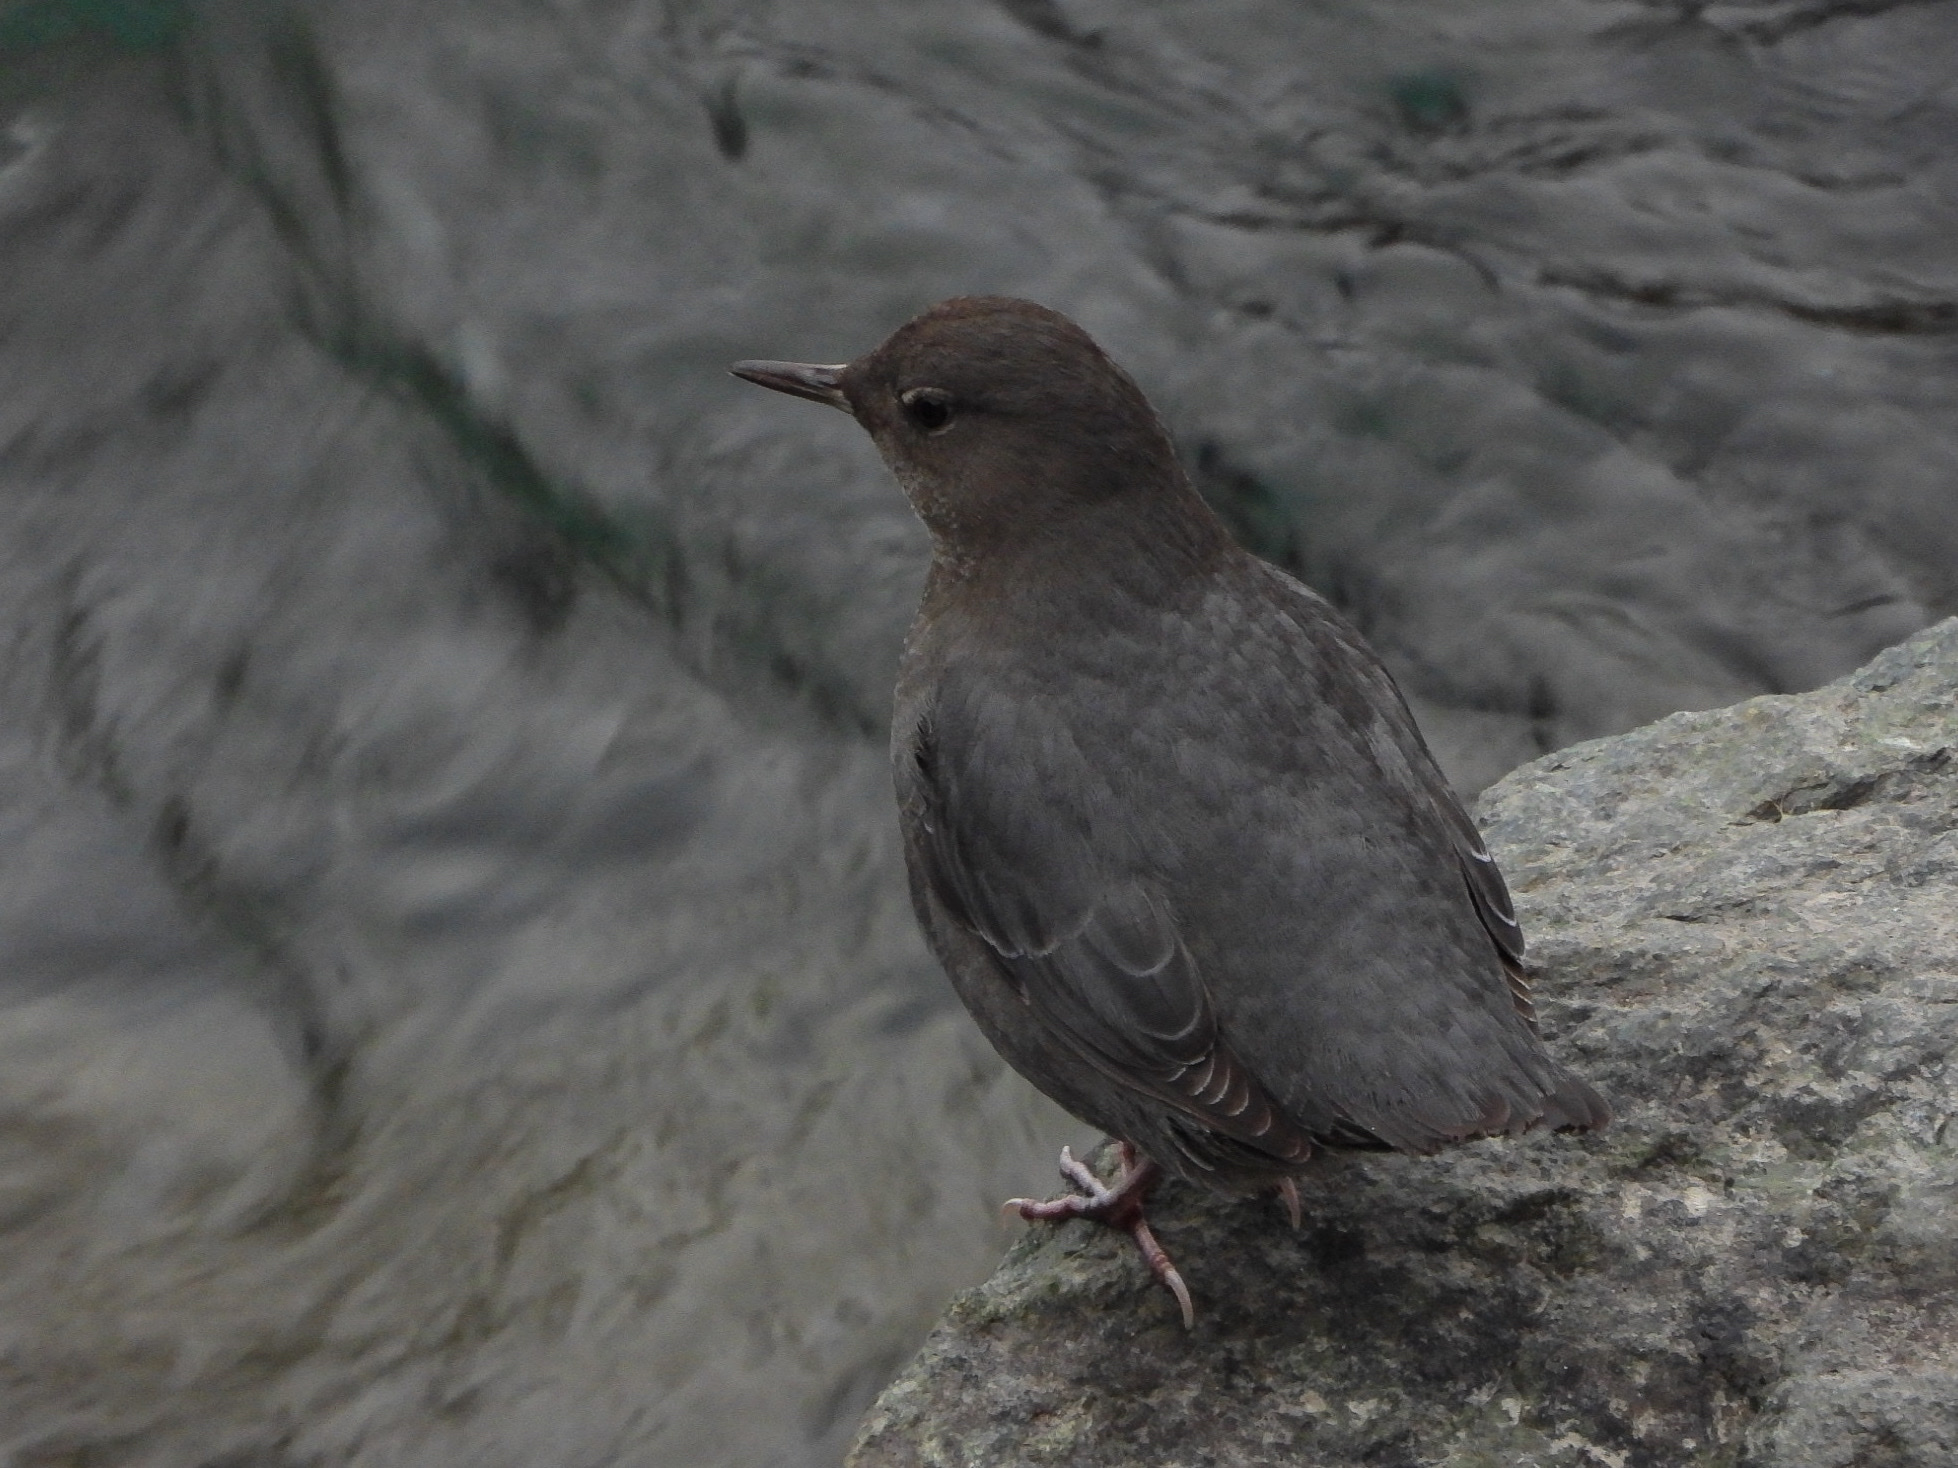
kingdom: Animalia
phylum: Chordata
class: Aves
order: Passeriformes
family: Cinclidae
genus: Cinclus
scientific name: Cinclus mexicanus
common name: American dipper
